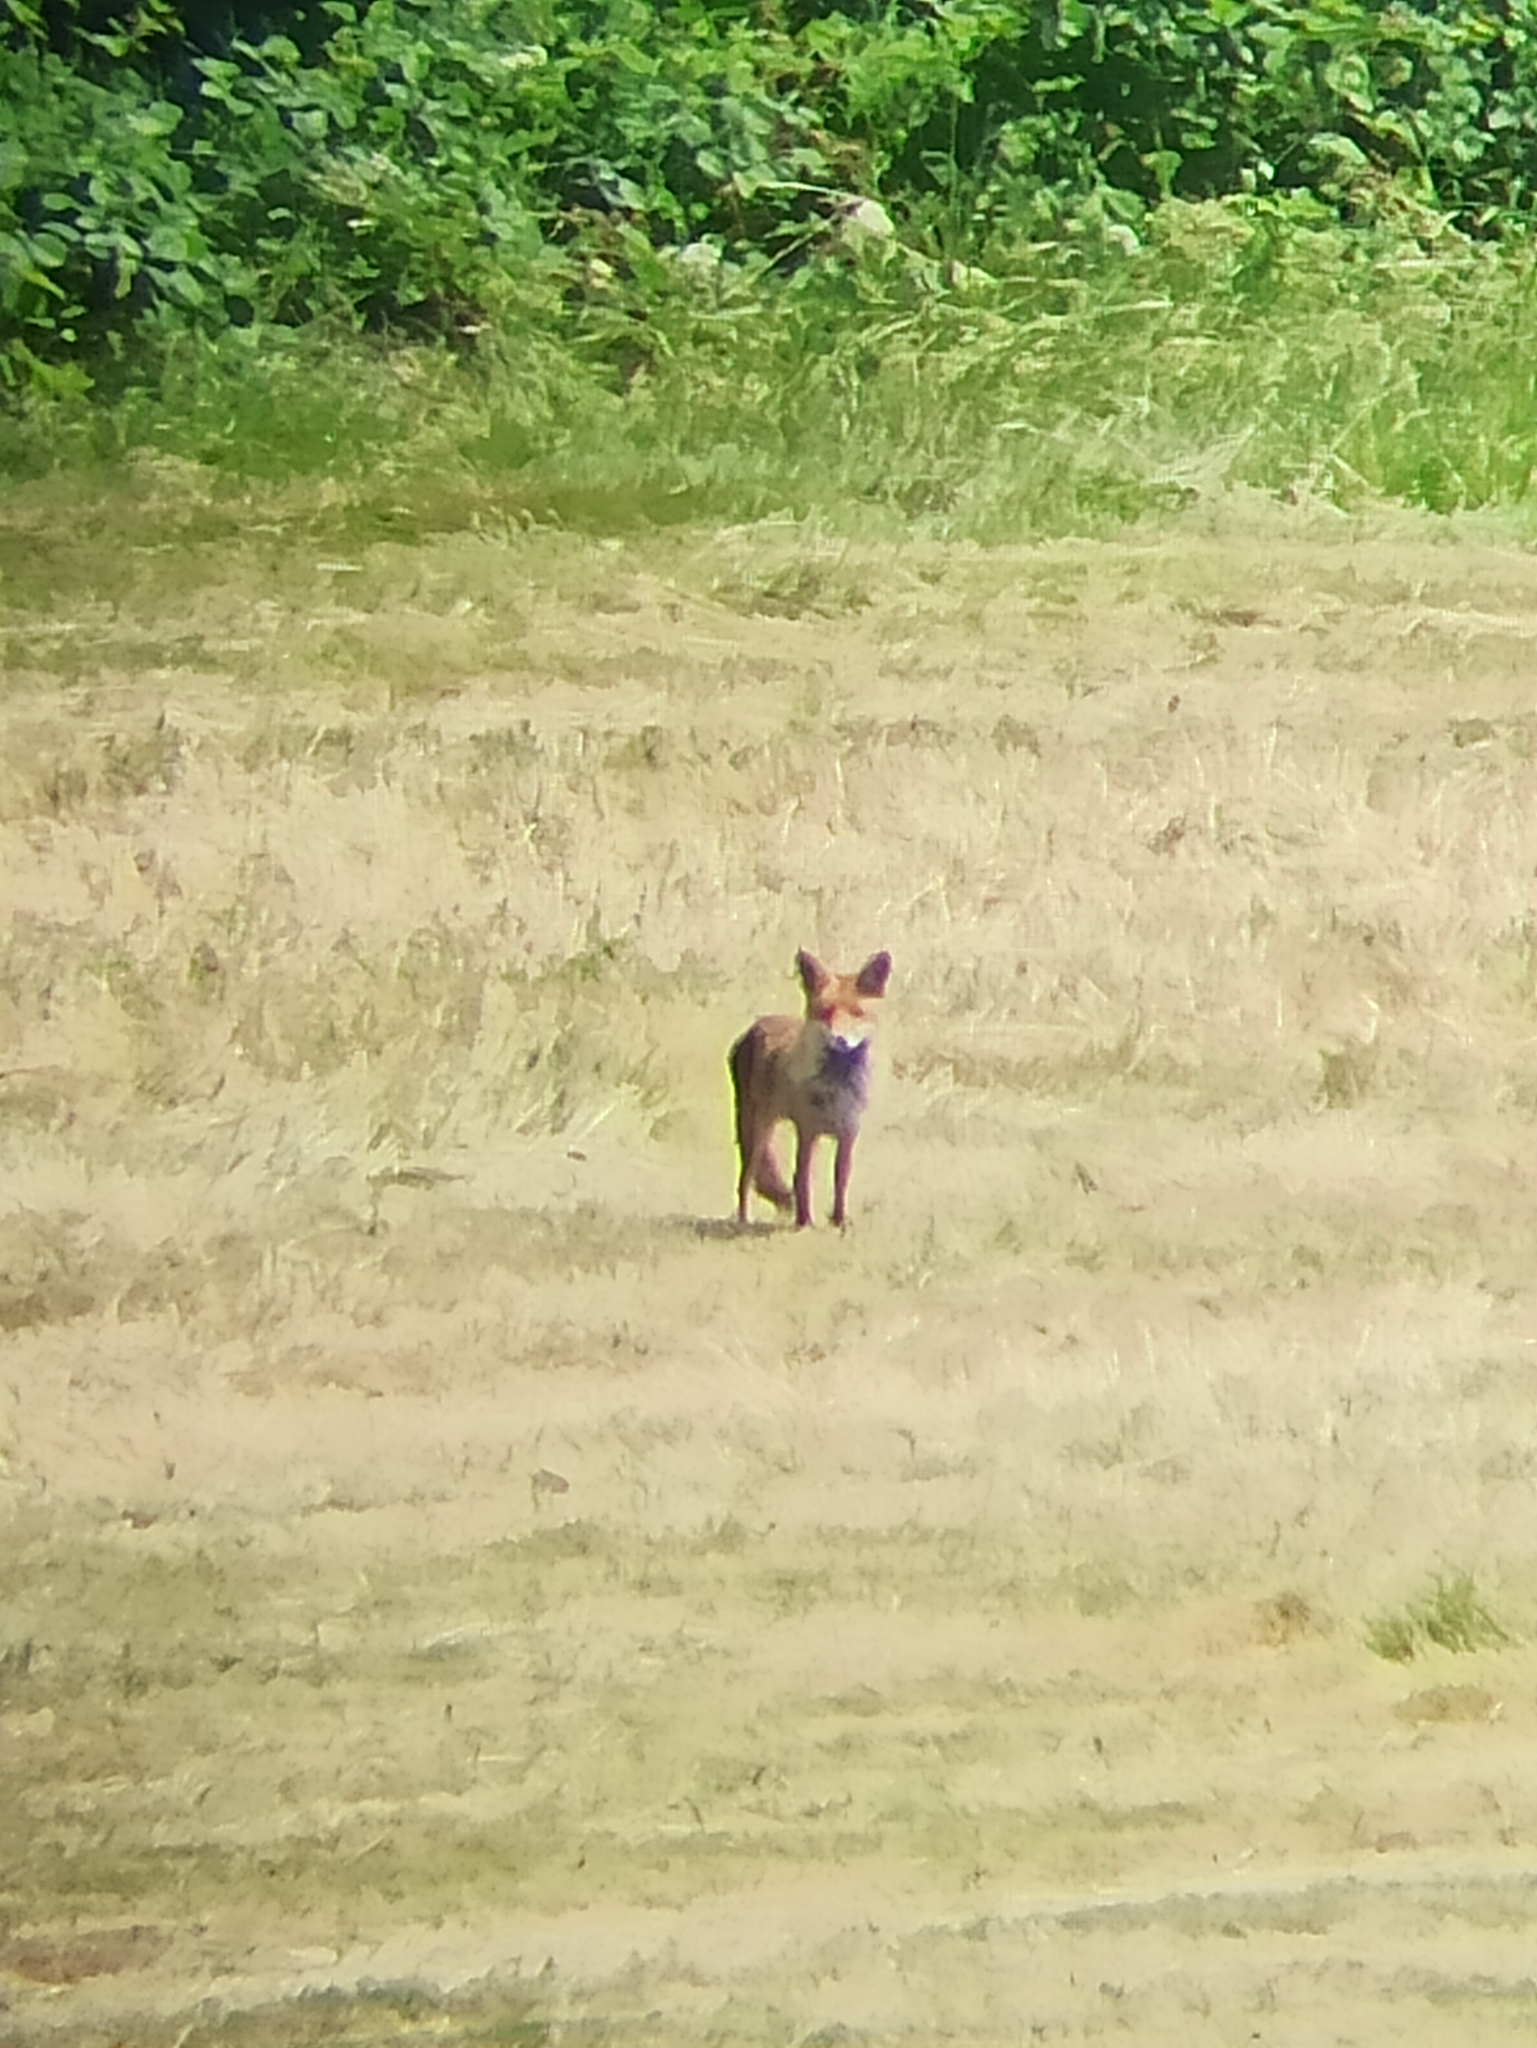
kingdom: Animalia
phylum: Chordata
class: Mammalia
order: Carnivora
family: Canidae
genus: Vulpes
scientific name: Vulpes vulpes
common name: Red fox
